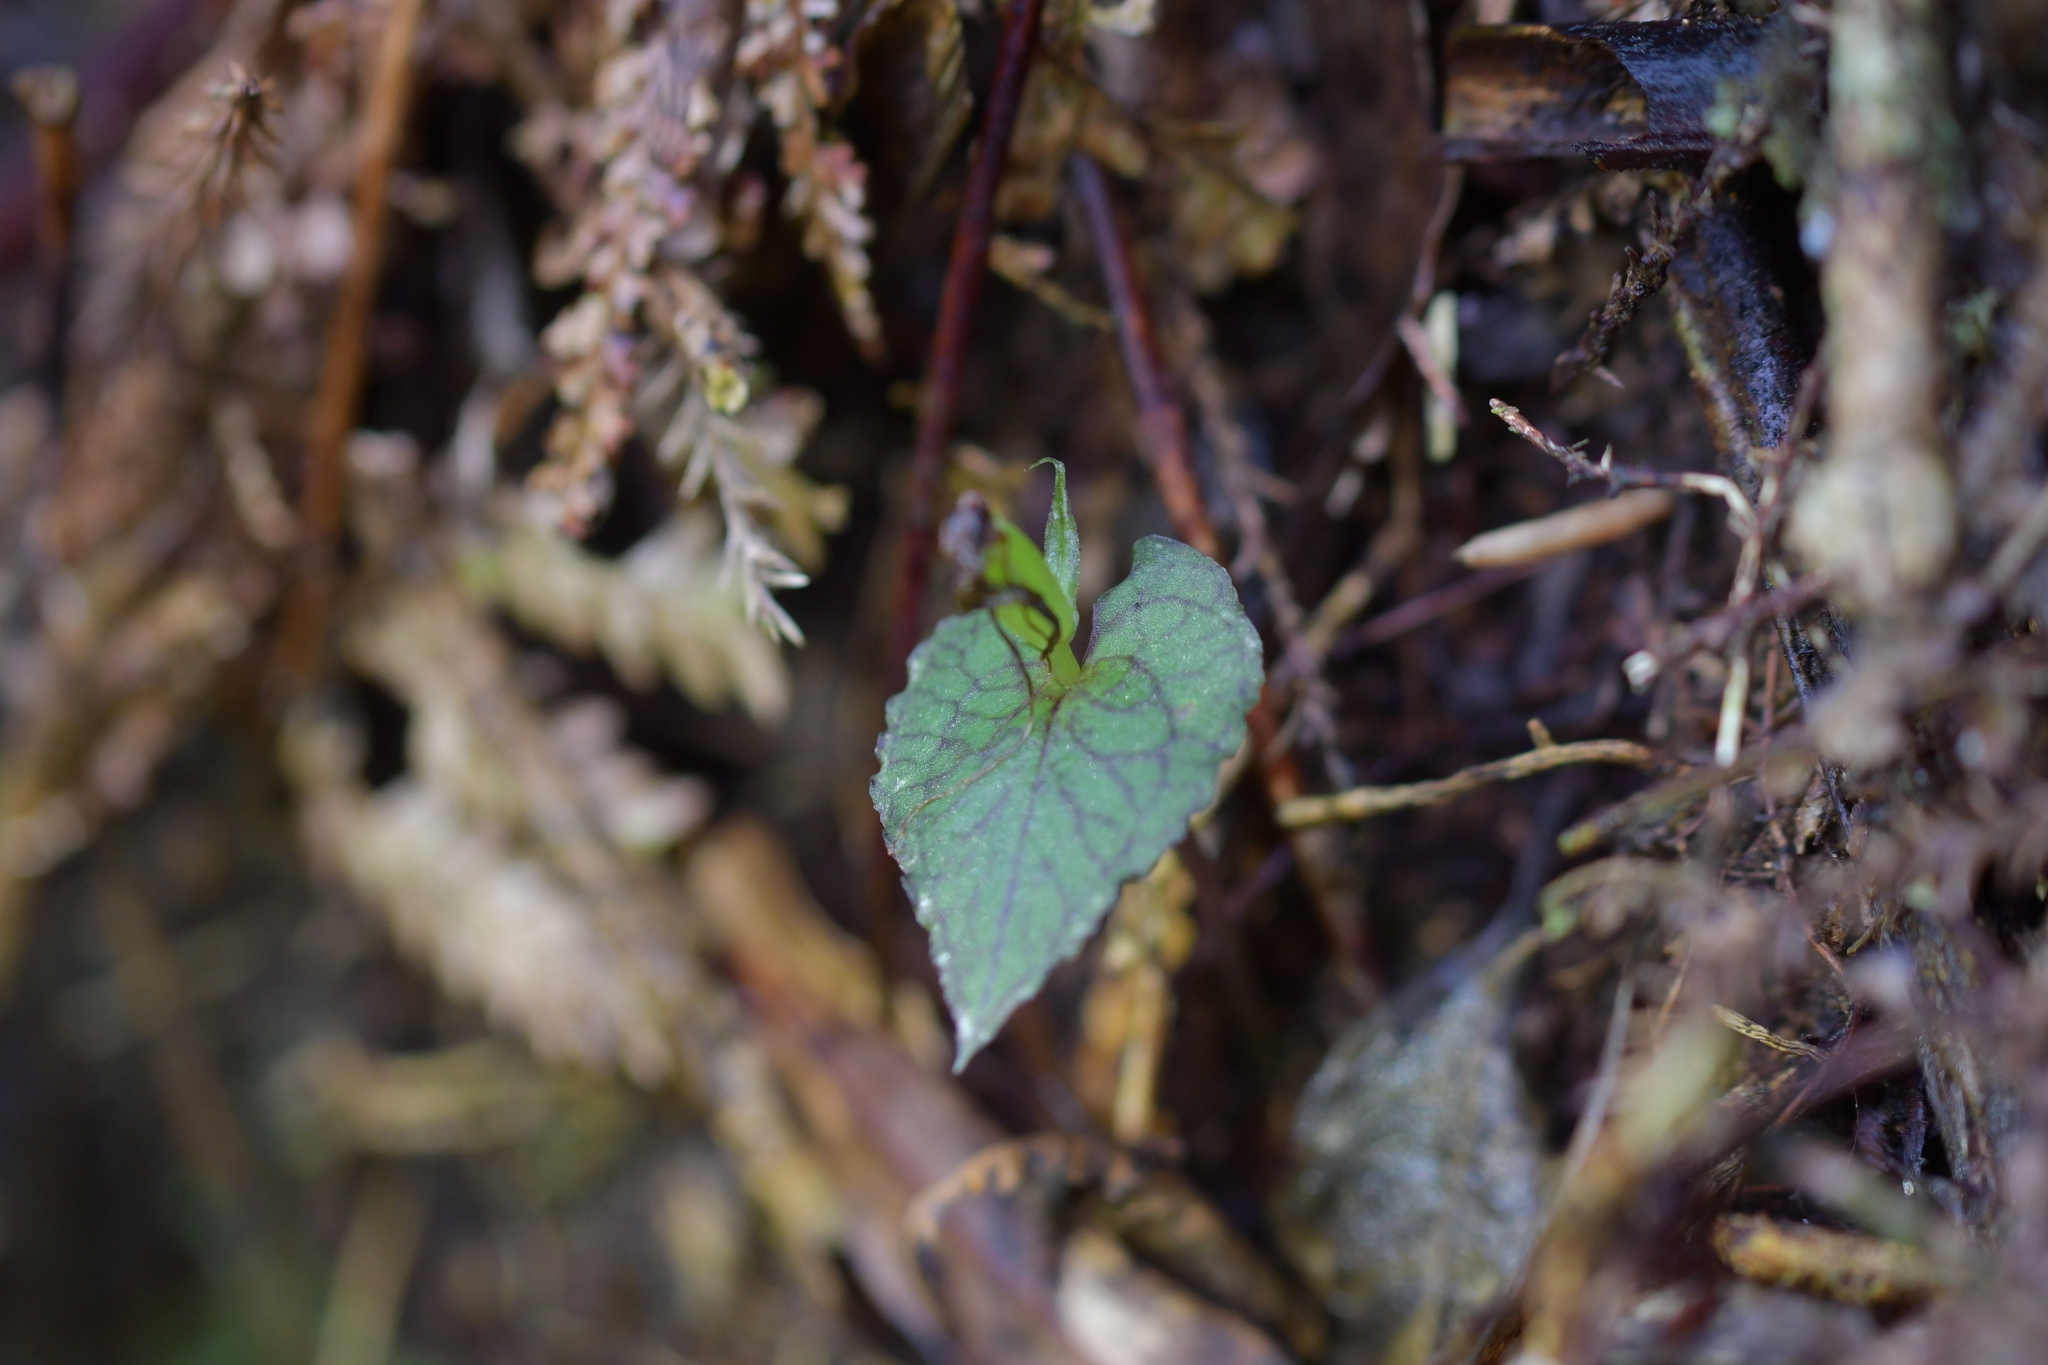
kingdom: Plantae
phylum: Tracheophyta
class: Liliopsida
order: Asparagales
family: Orchidaceae
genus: Corybas
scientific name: Corybas acuminatus
